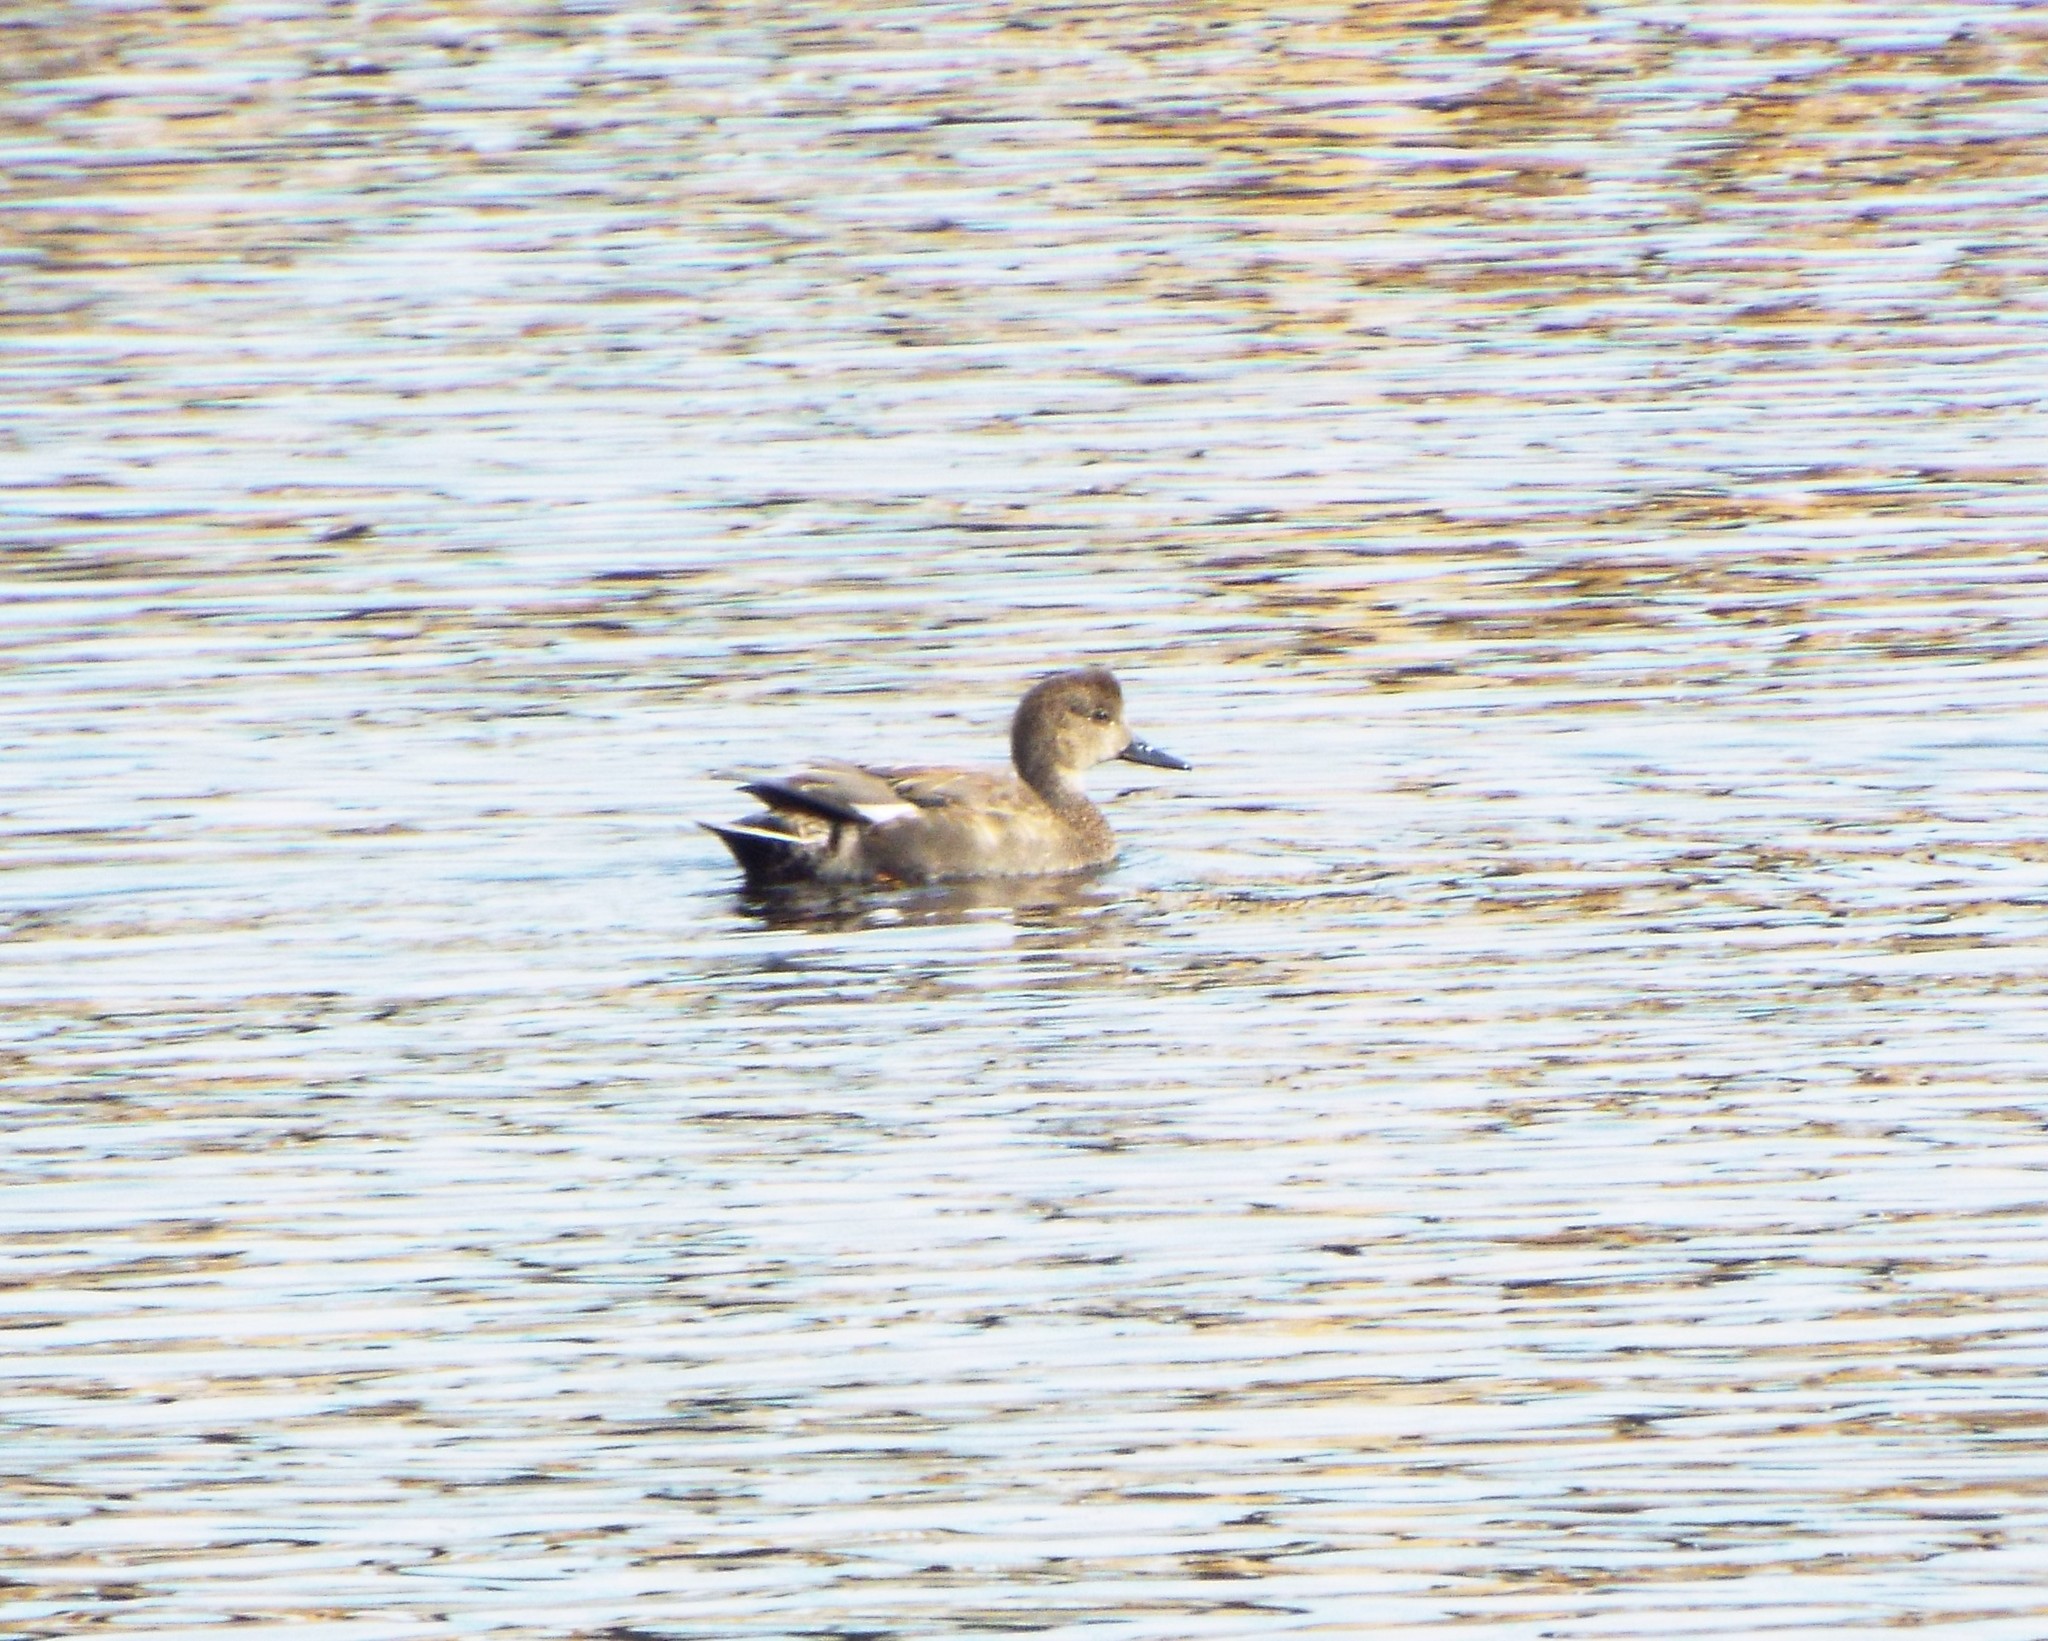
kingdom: Animalia
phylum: Chordata
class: Aves
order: Anseriformes
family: Anatidae
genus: Mareca
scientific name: Mareca strepera
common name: Gadwall
